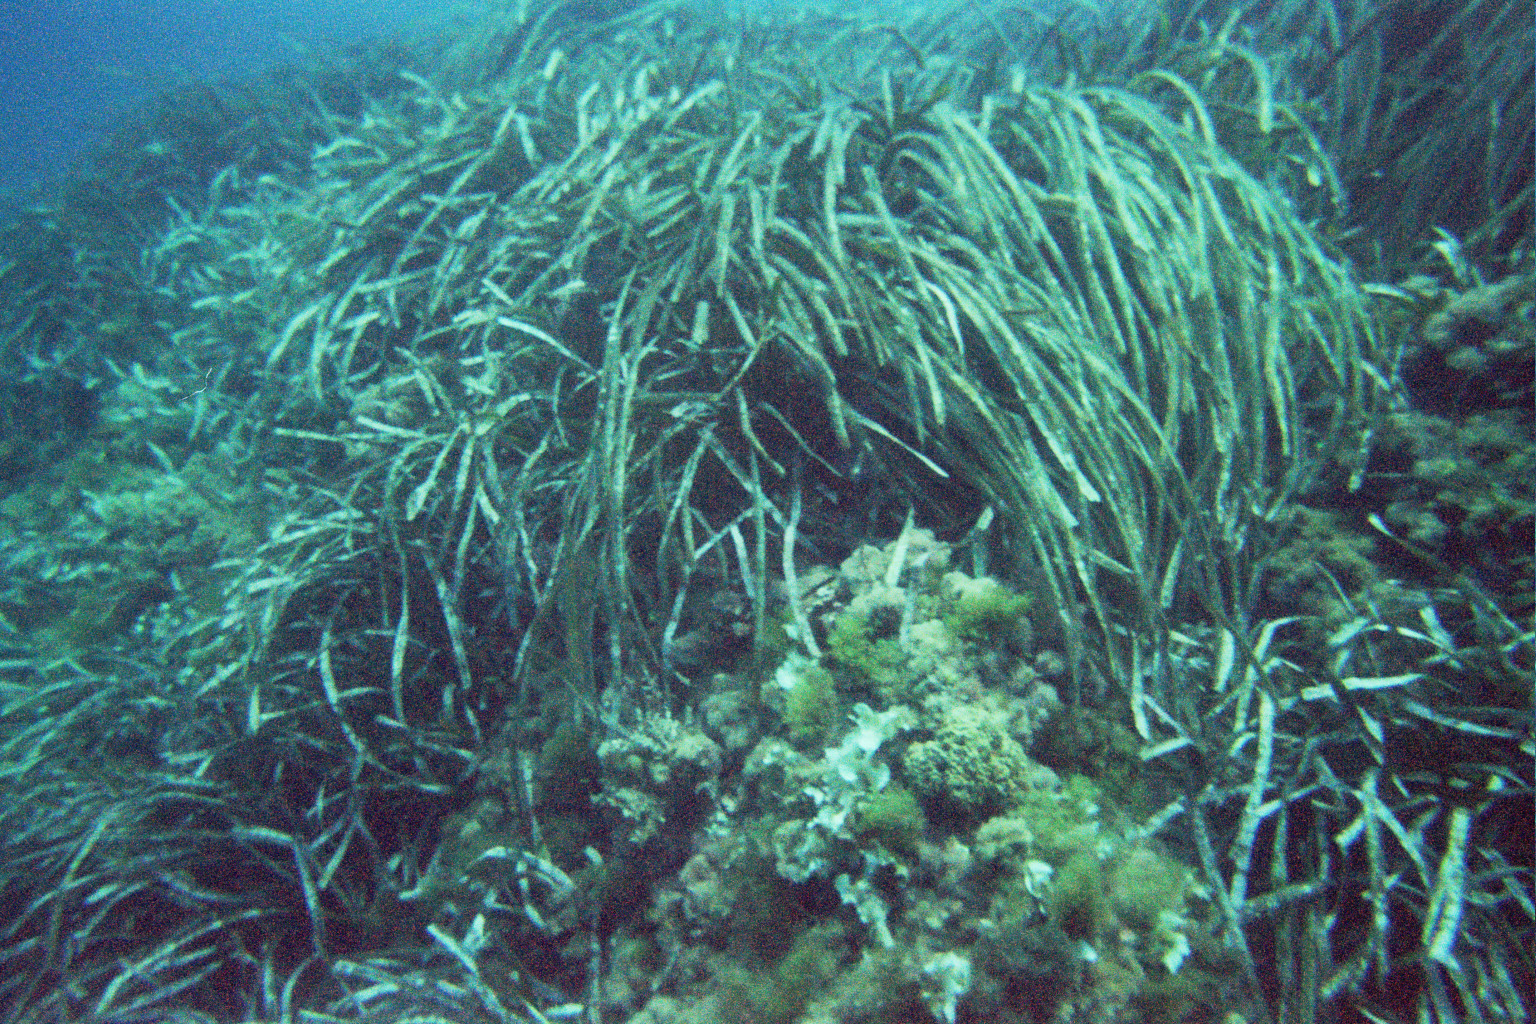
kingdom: Plantae
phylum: Tracheophyta
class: Liliopsida
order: Alismatales
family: Posidoniaceae
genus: Posidonia
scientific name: Posidonia oceanica
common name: Mediterranean tapeweed
